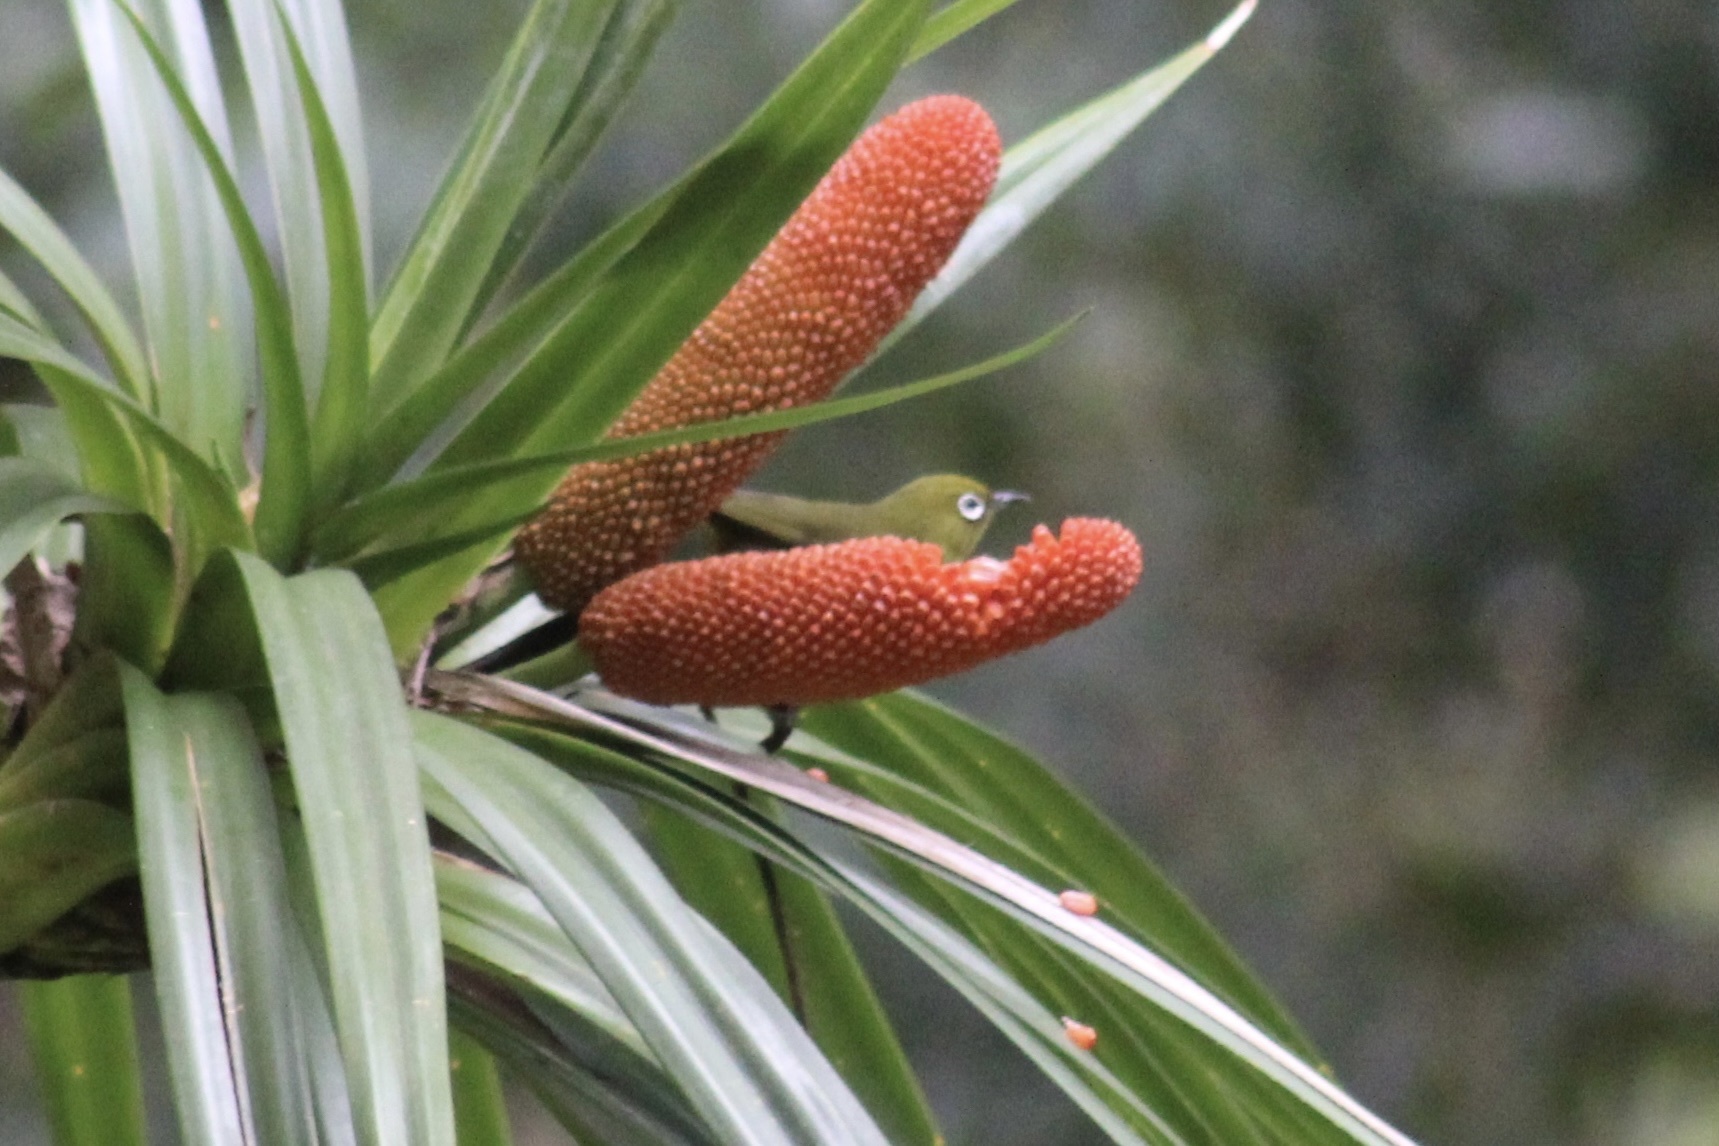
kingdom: Plantae
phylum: Tracheophyta
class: Liliopsida
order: Pandanales
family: Pandanaceae
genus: Freycinetia
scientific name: Freycinetia arborea
